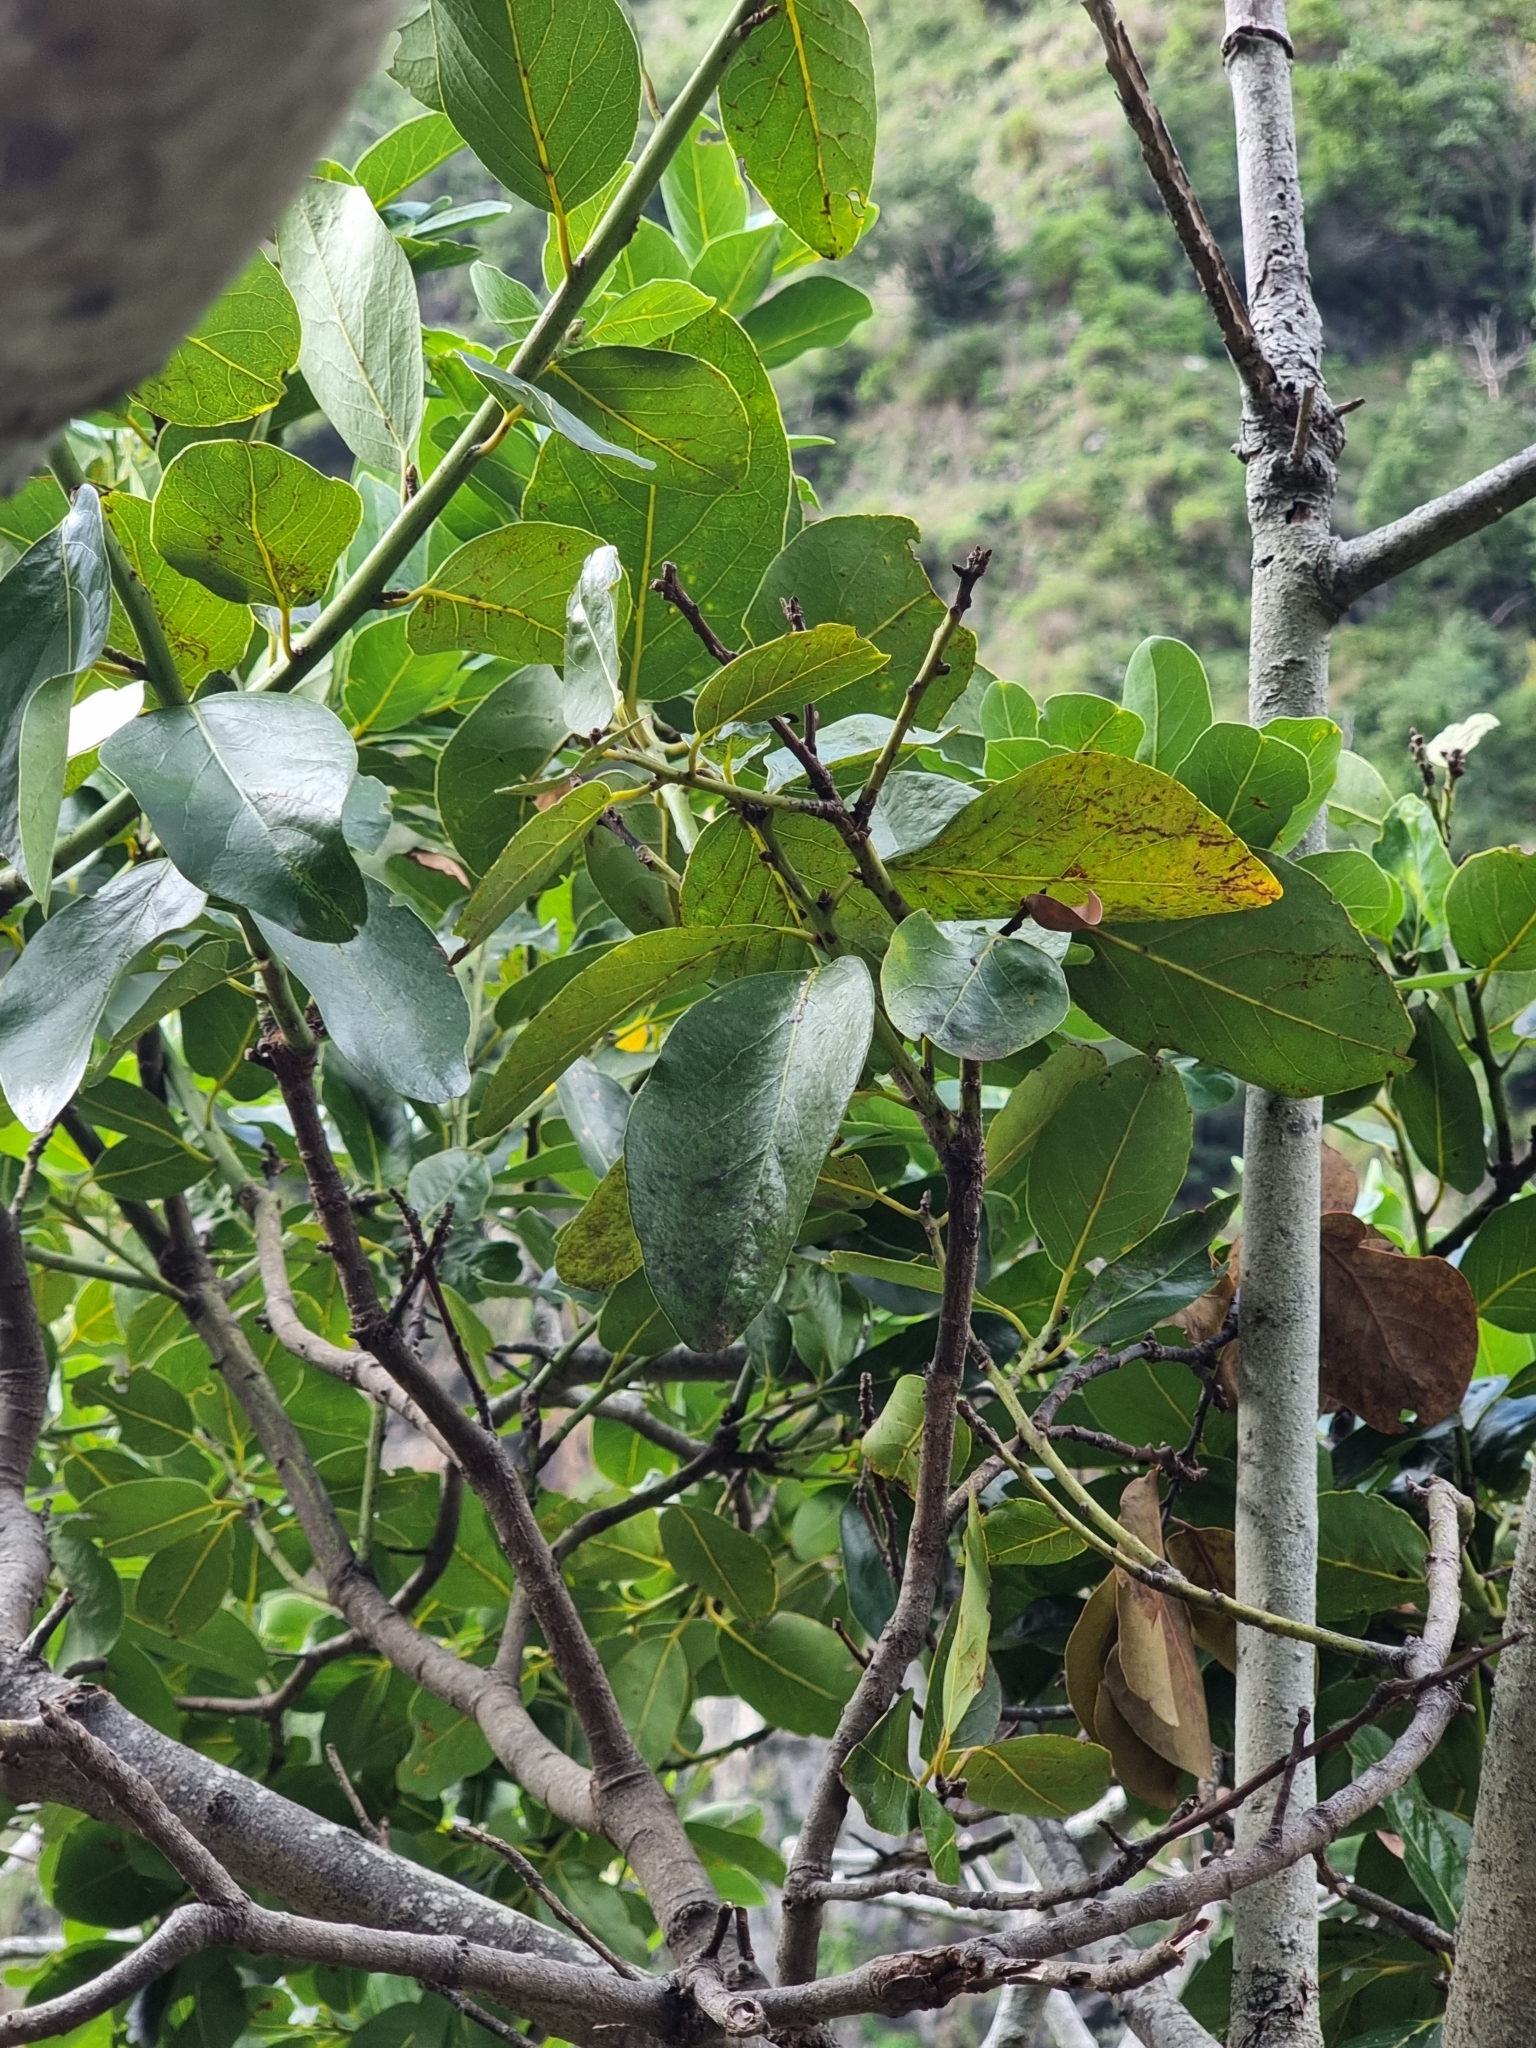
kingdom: Plantae
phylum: Tracheophyta
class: Magnoliopsida
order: Laurales
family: Lauraceae
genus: Laurus
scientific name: Laurus novocanariensis
